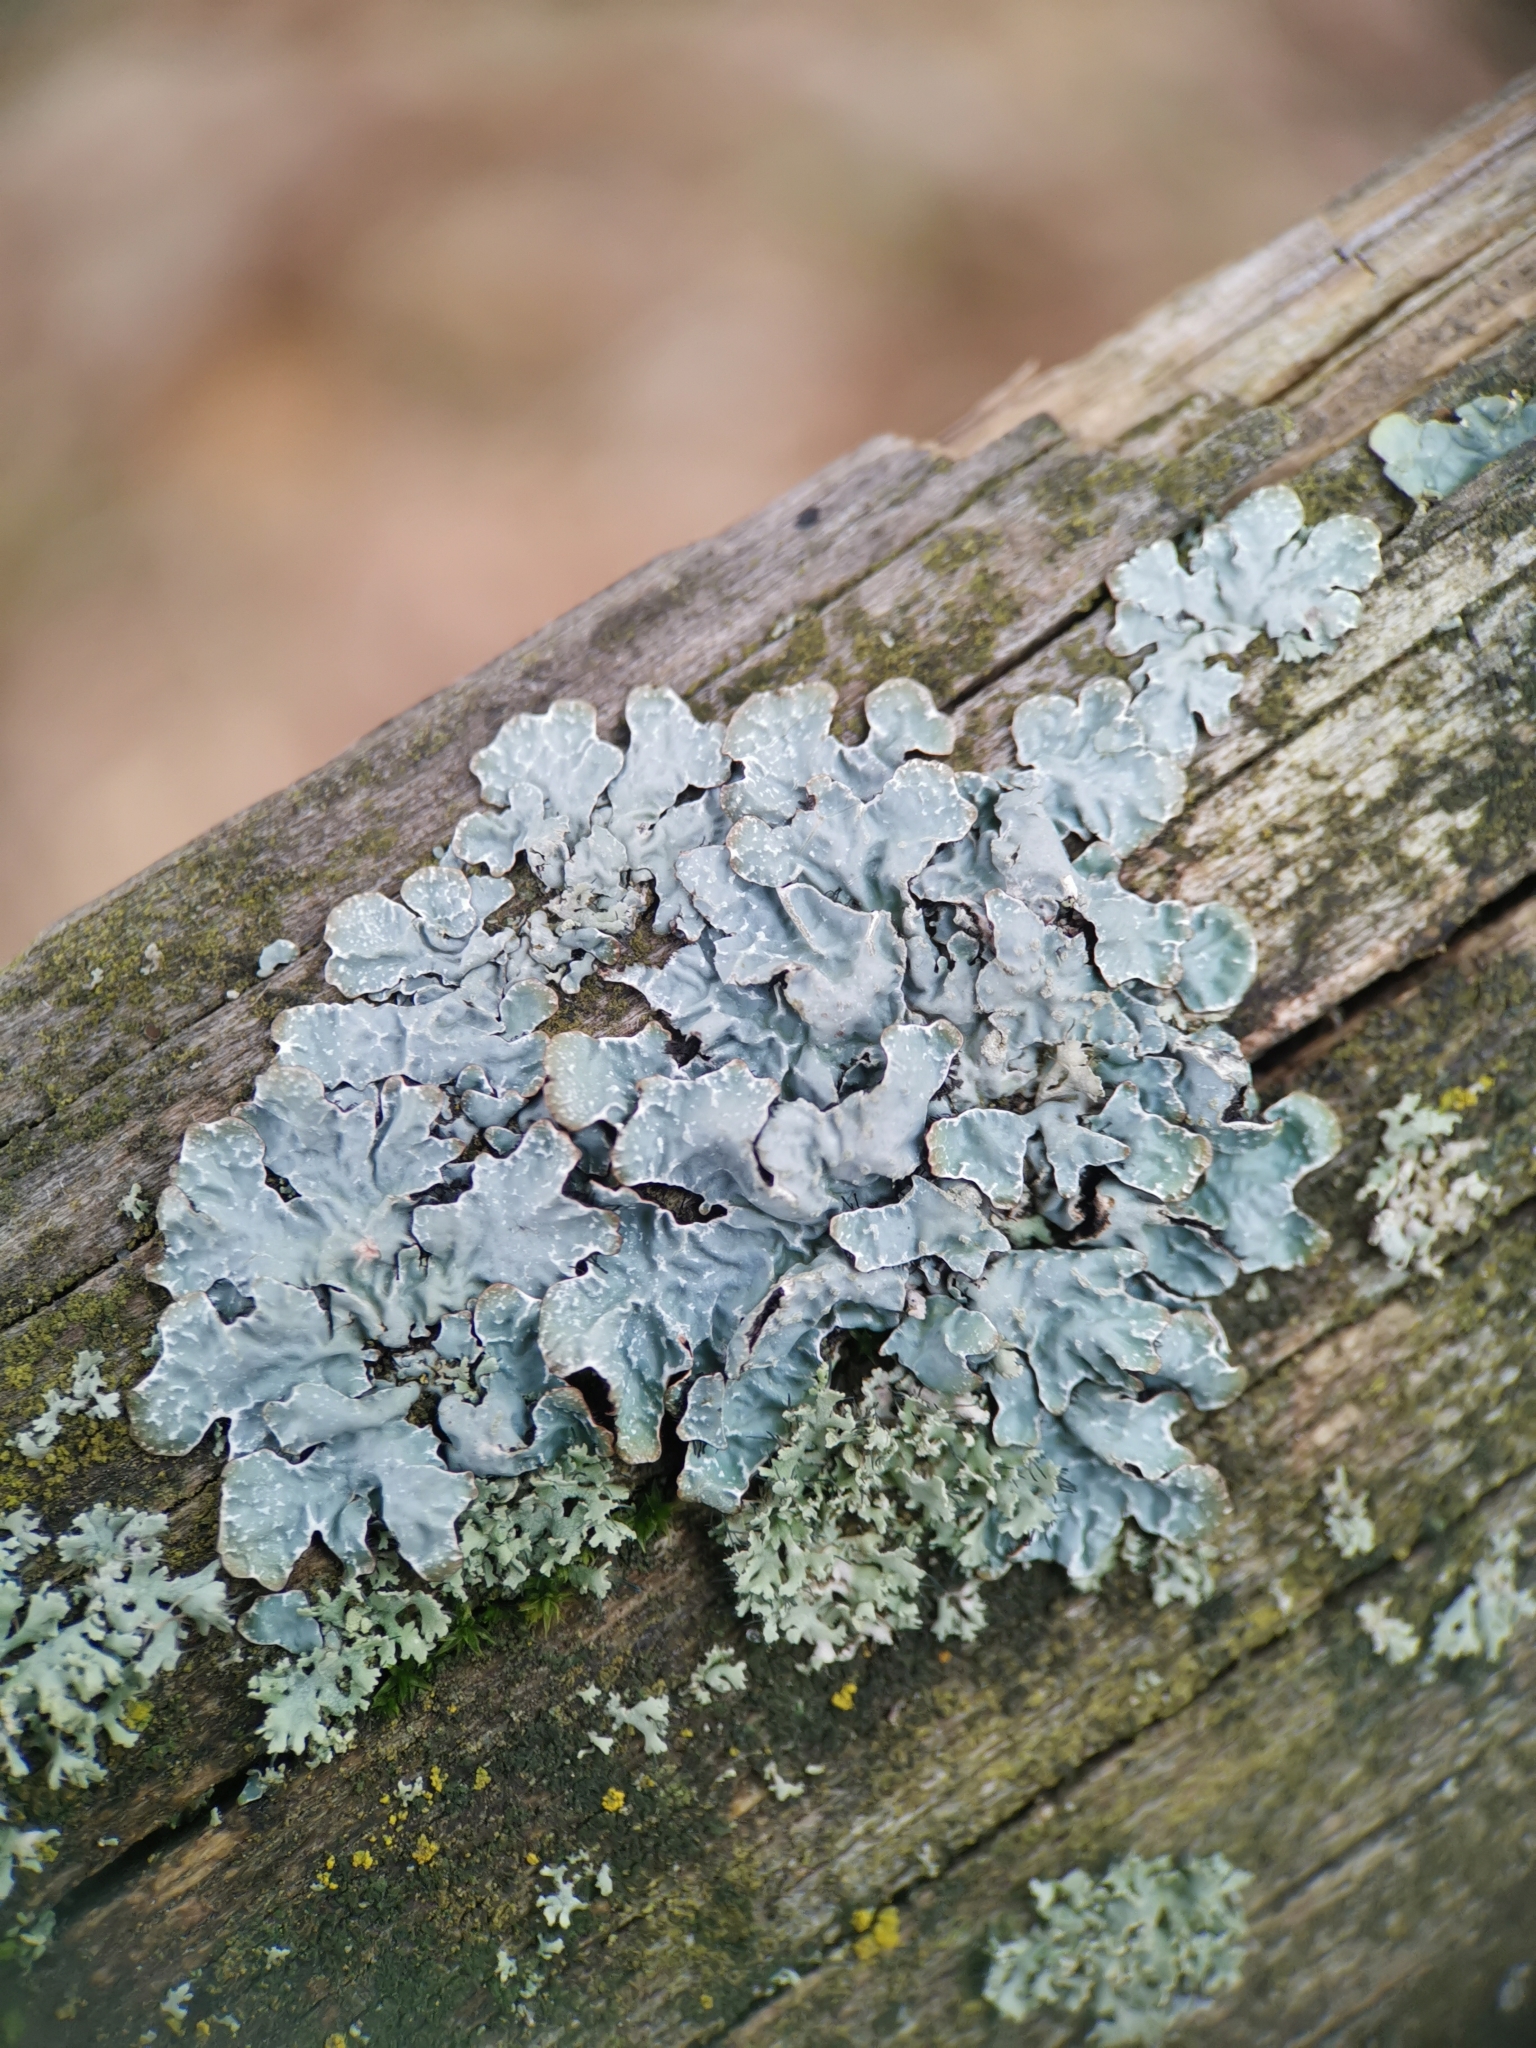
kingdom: Fungi
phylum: Ascomycota
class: Lecanoromycetes
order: Lecanorales
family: Parmeliaceae
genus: Parmelia
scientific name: Parmelia sulcata
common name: Netted shield lichen
